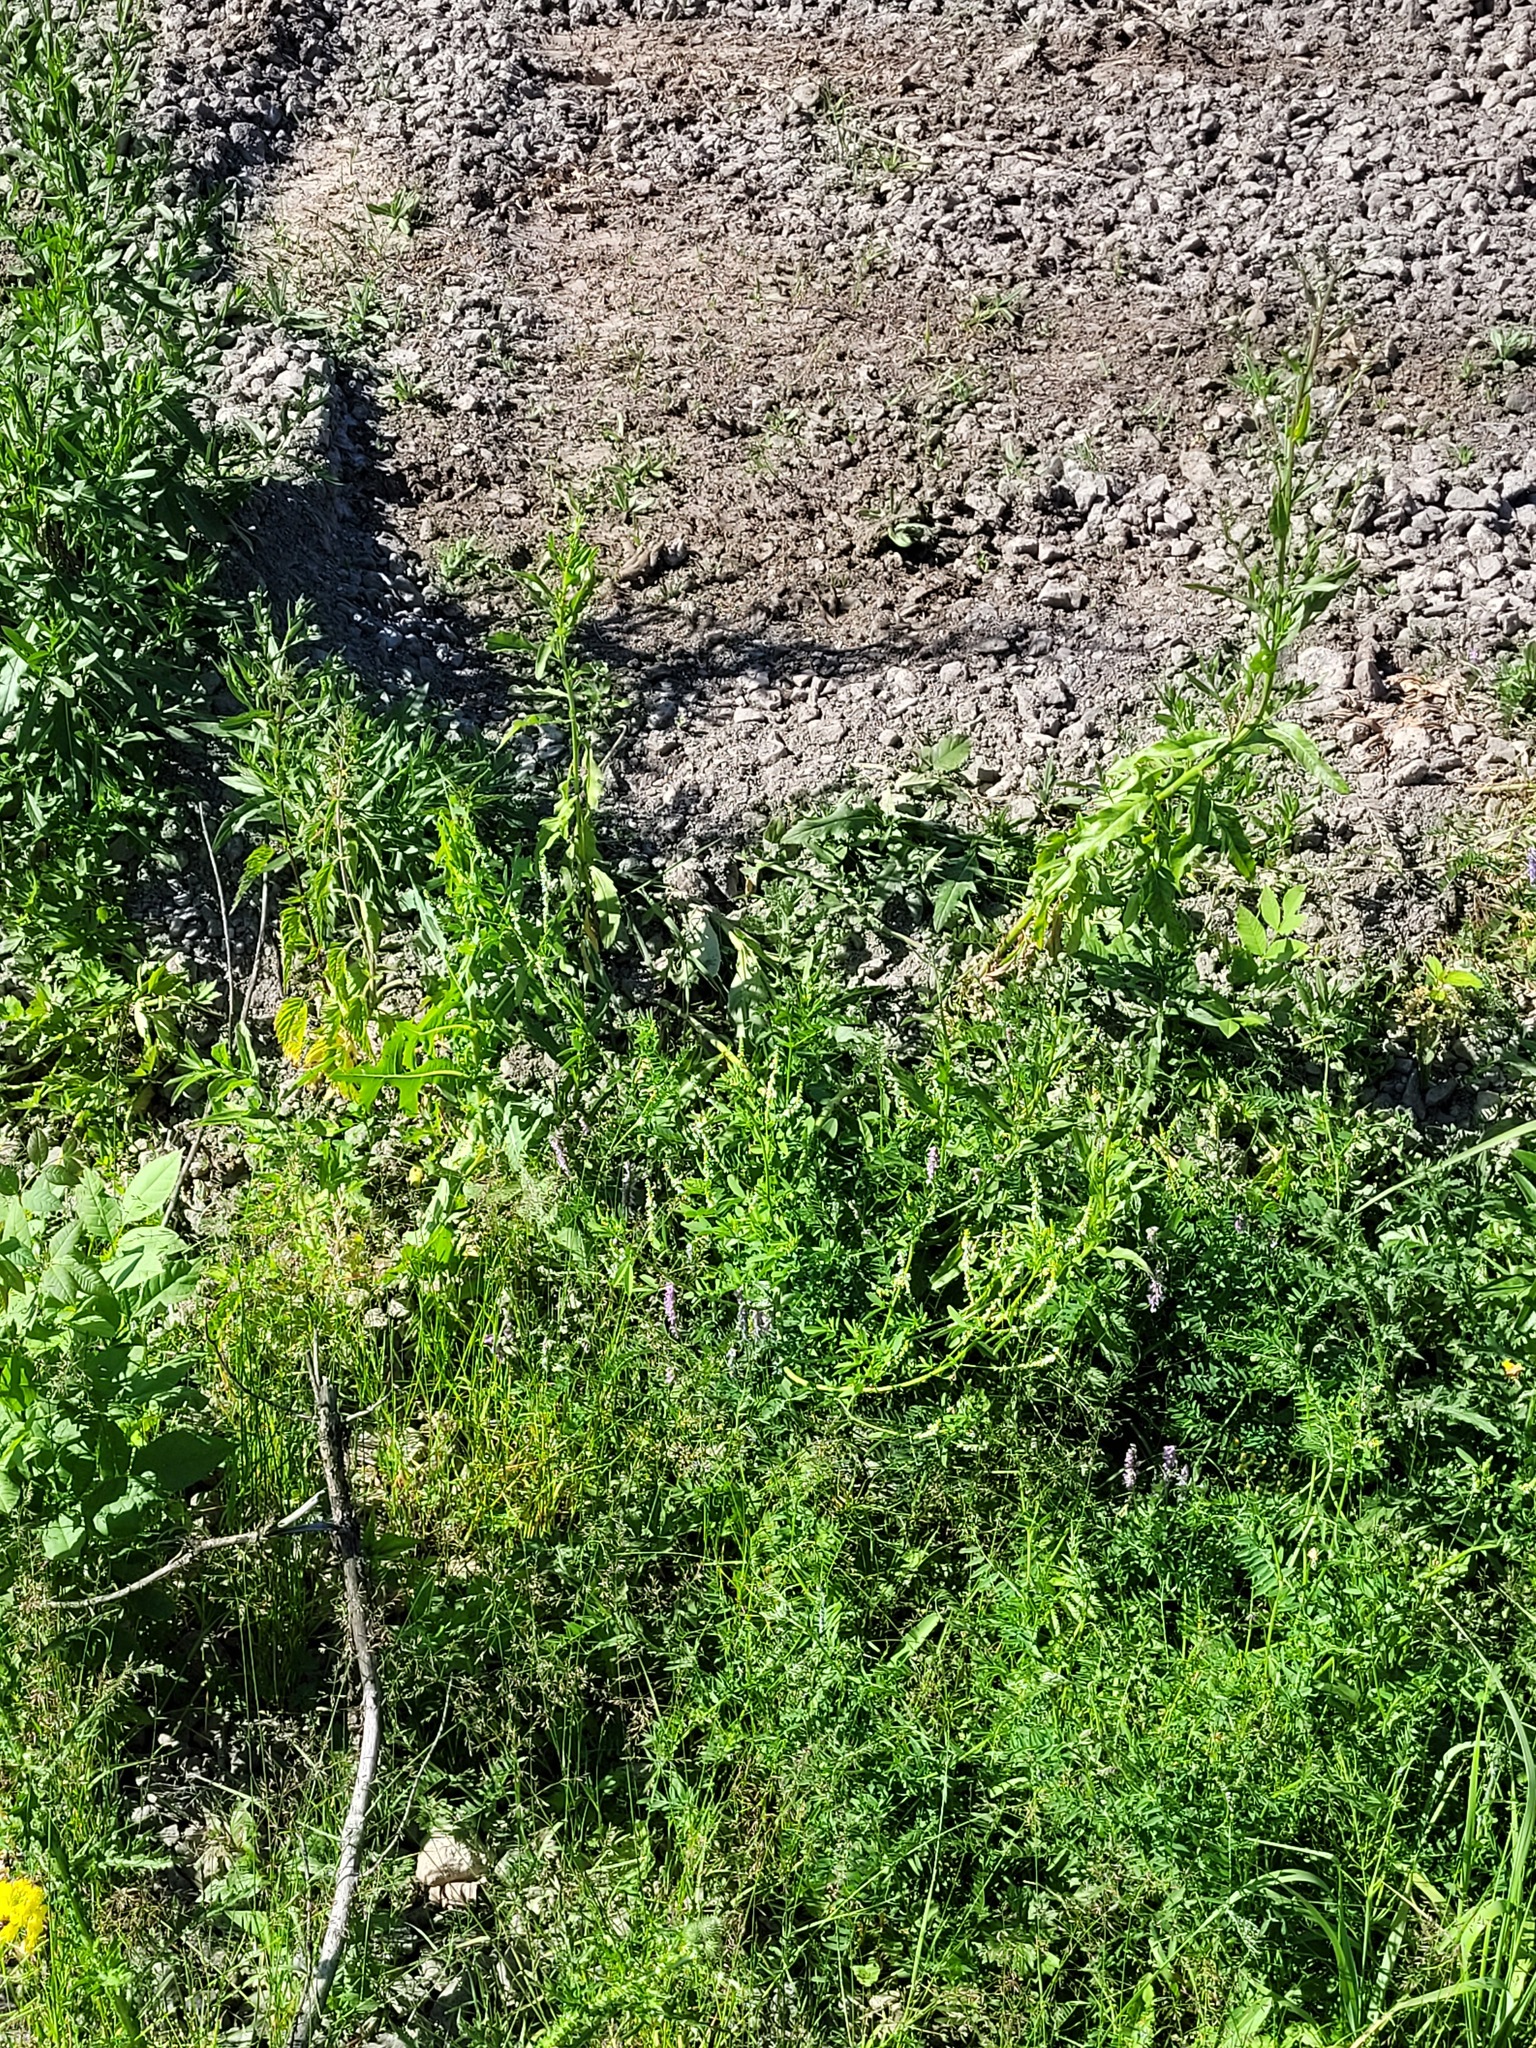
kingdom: Plantae
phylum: Tracheophyta
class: Magnoliopsida
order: Fabales
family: Fabaceae
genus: Melilotus
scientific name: Melilotus albus
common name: White melilot
